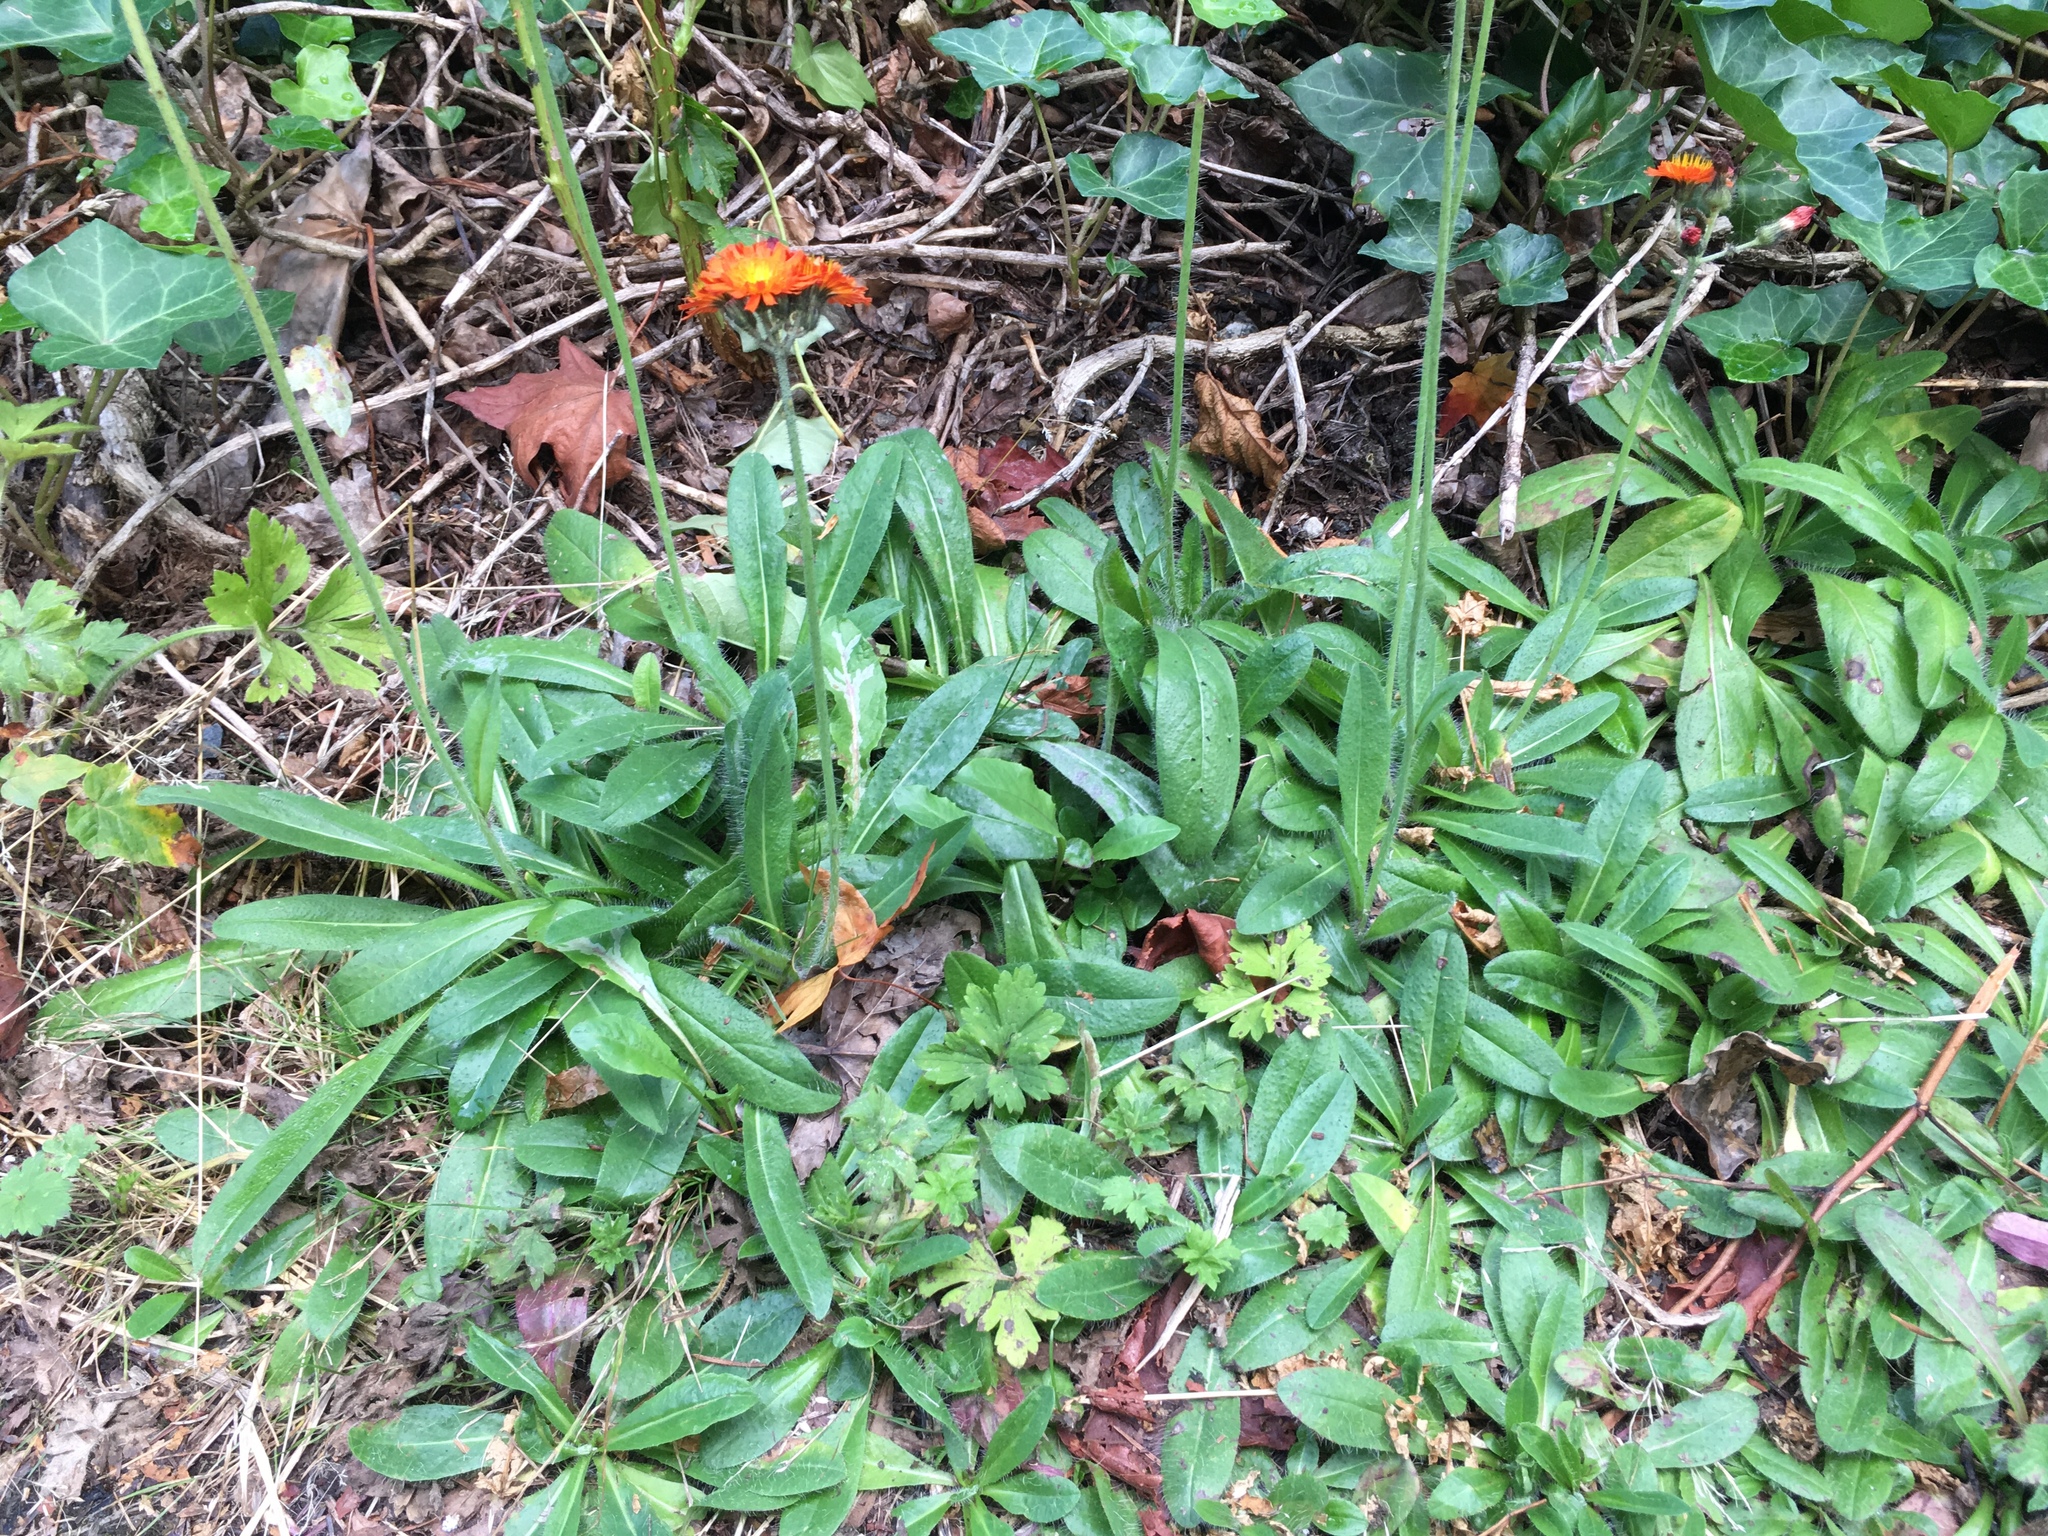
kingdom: Plantae
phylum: Tracheophyta
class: Magnoliopsida
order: Asterales
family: Asteraceae
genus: Pilosella
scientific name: Pilosella aurantiaca
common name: Fox-and-cubs
